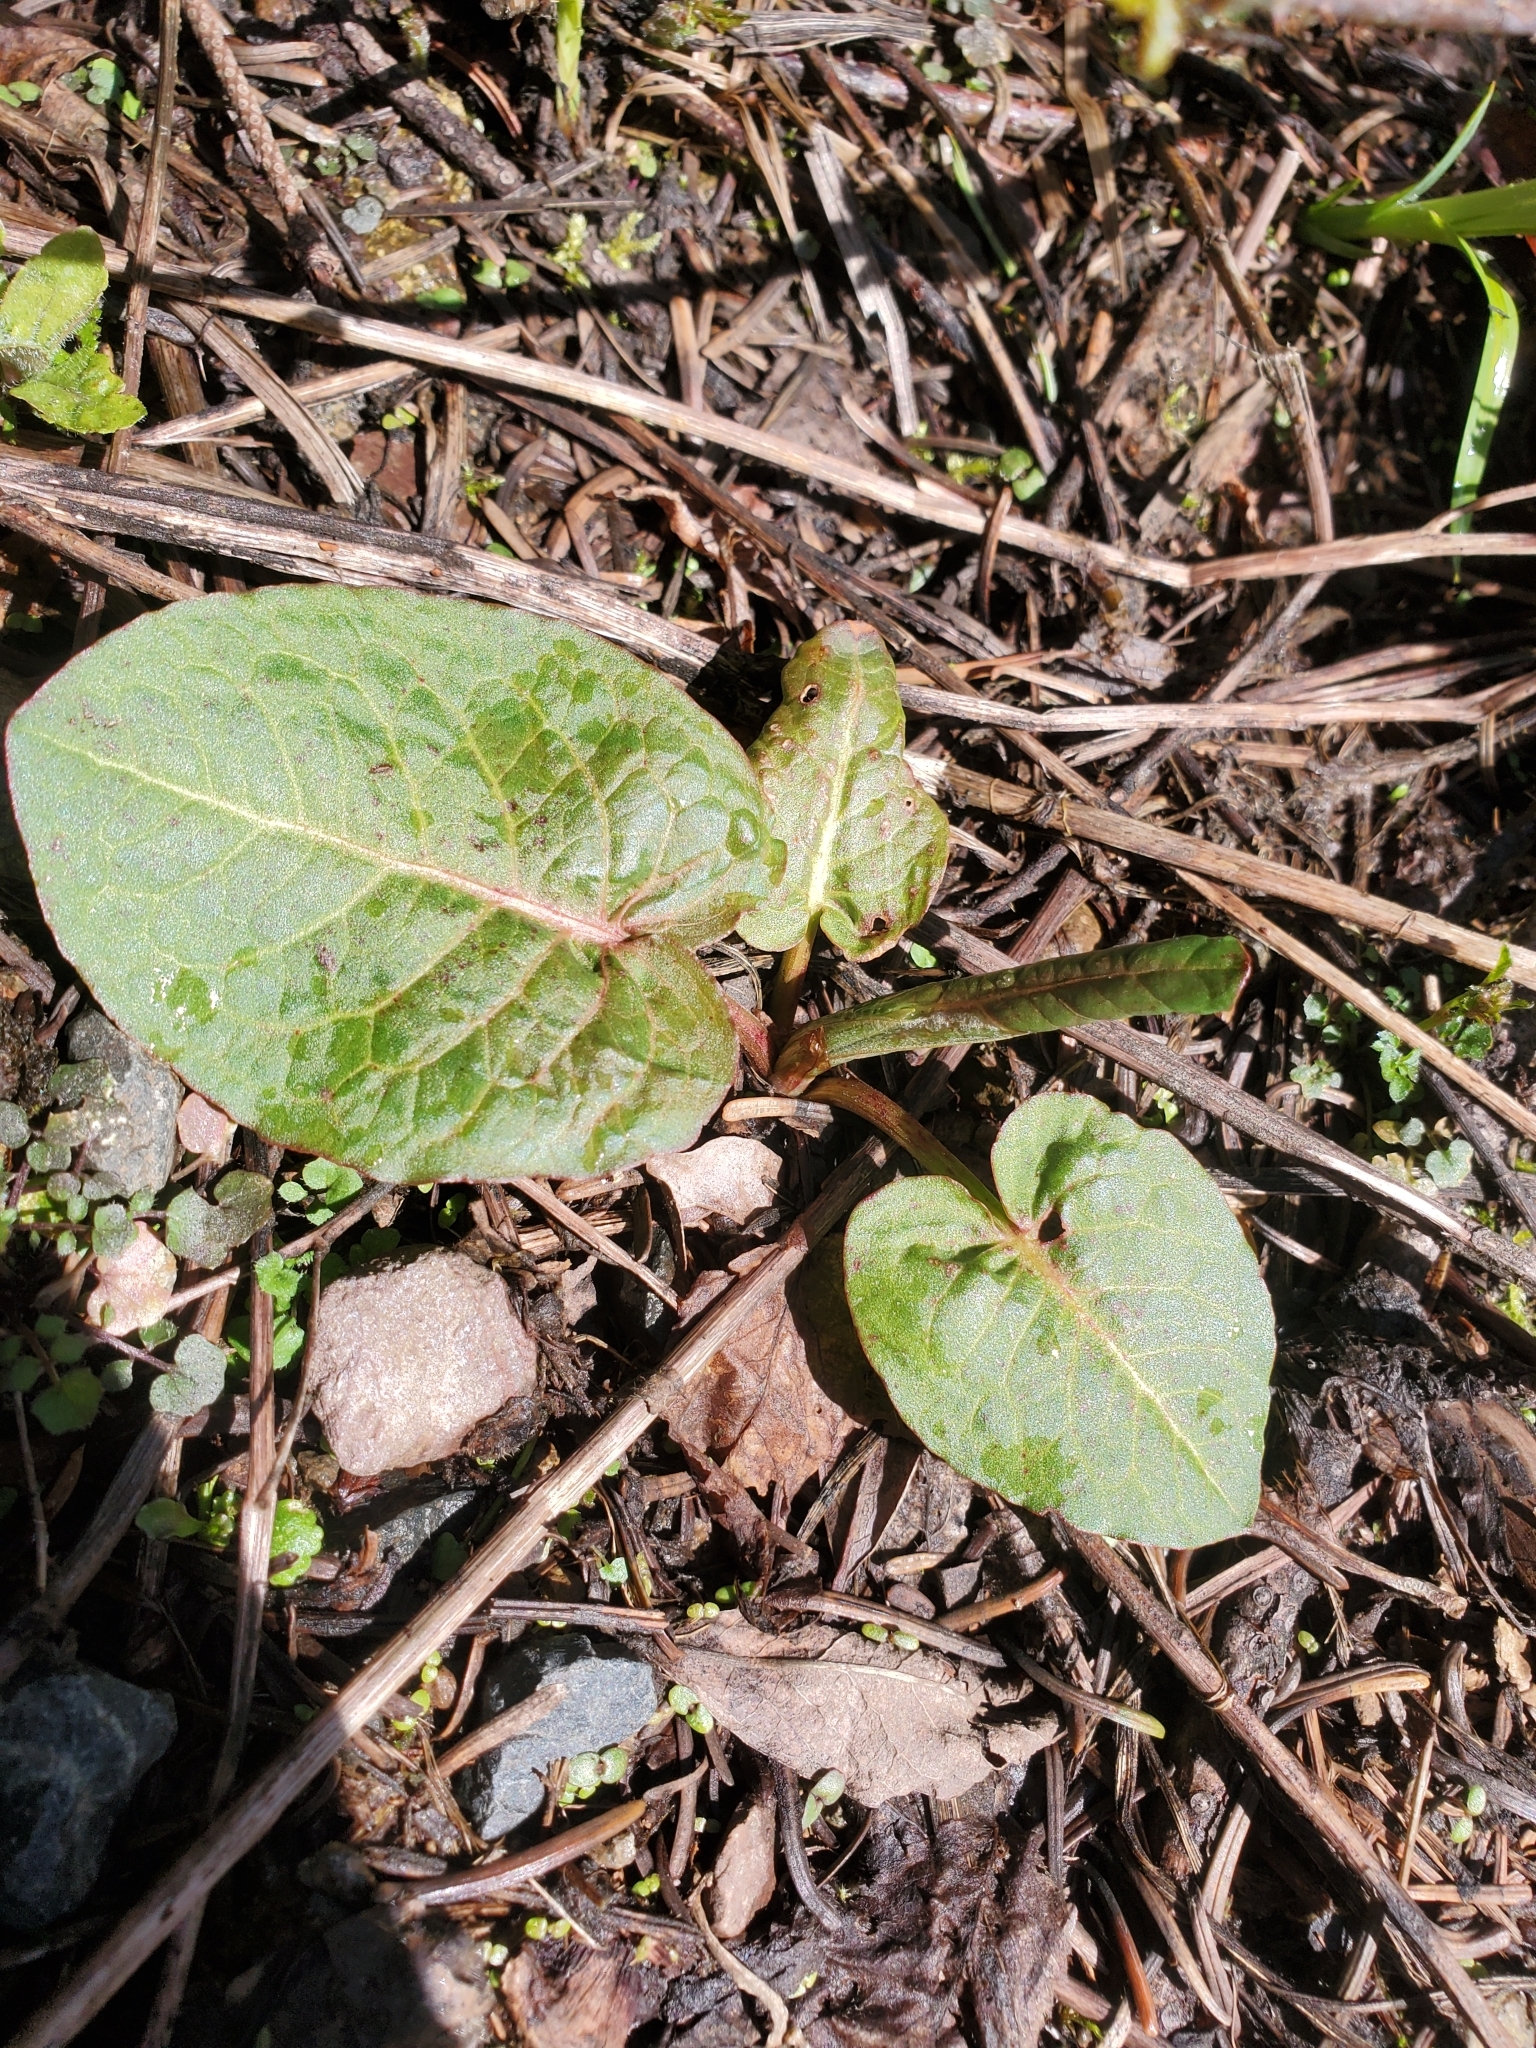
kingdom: Plantae
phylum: Tracheophyta
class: Magnoliopsida
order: Caryophyllales
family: Polygonaceae
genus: Rumex
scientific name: Rumex obtusifolius
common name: Bitter dock
